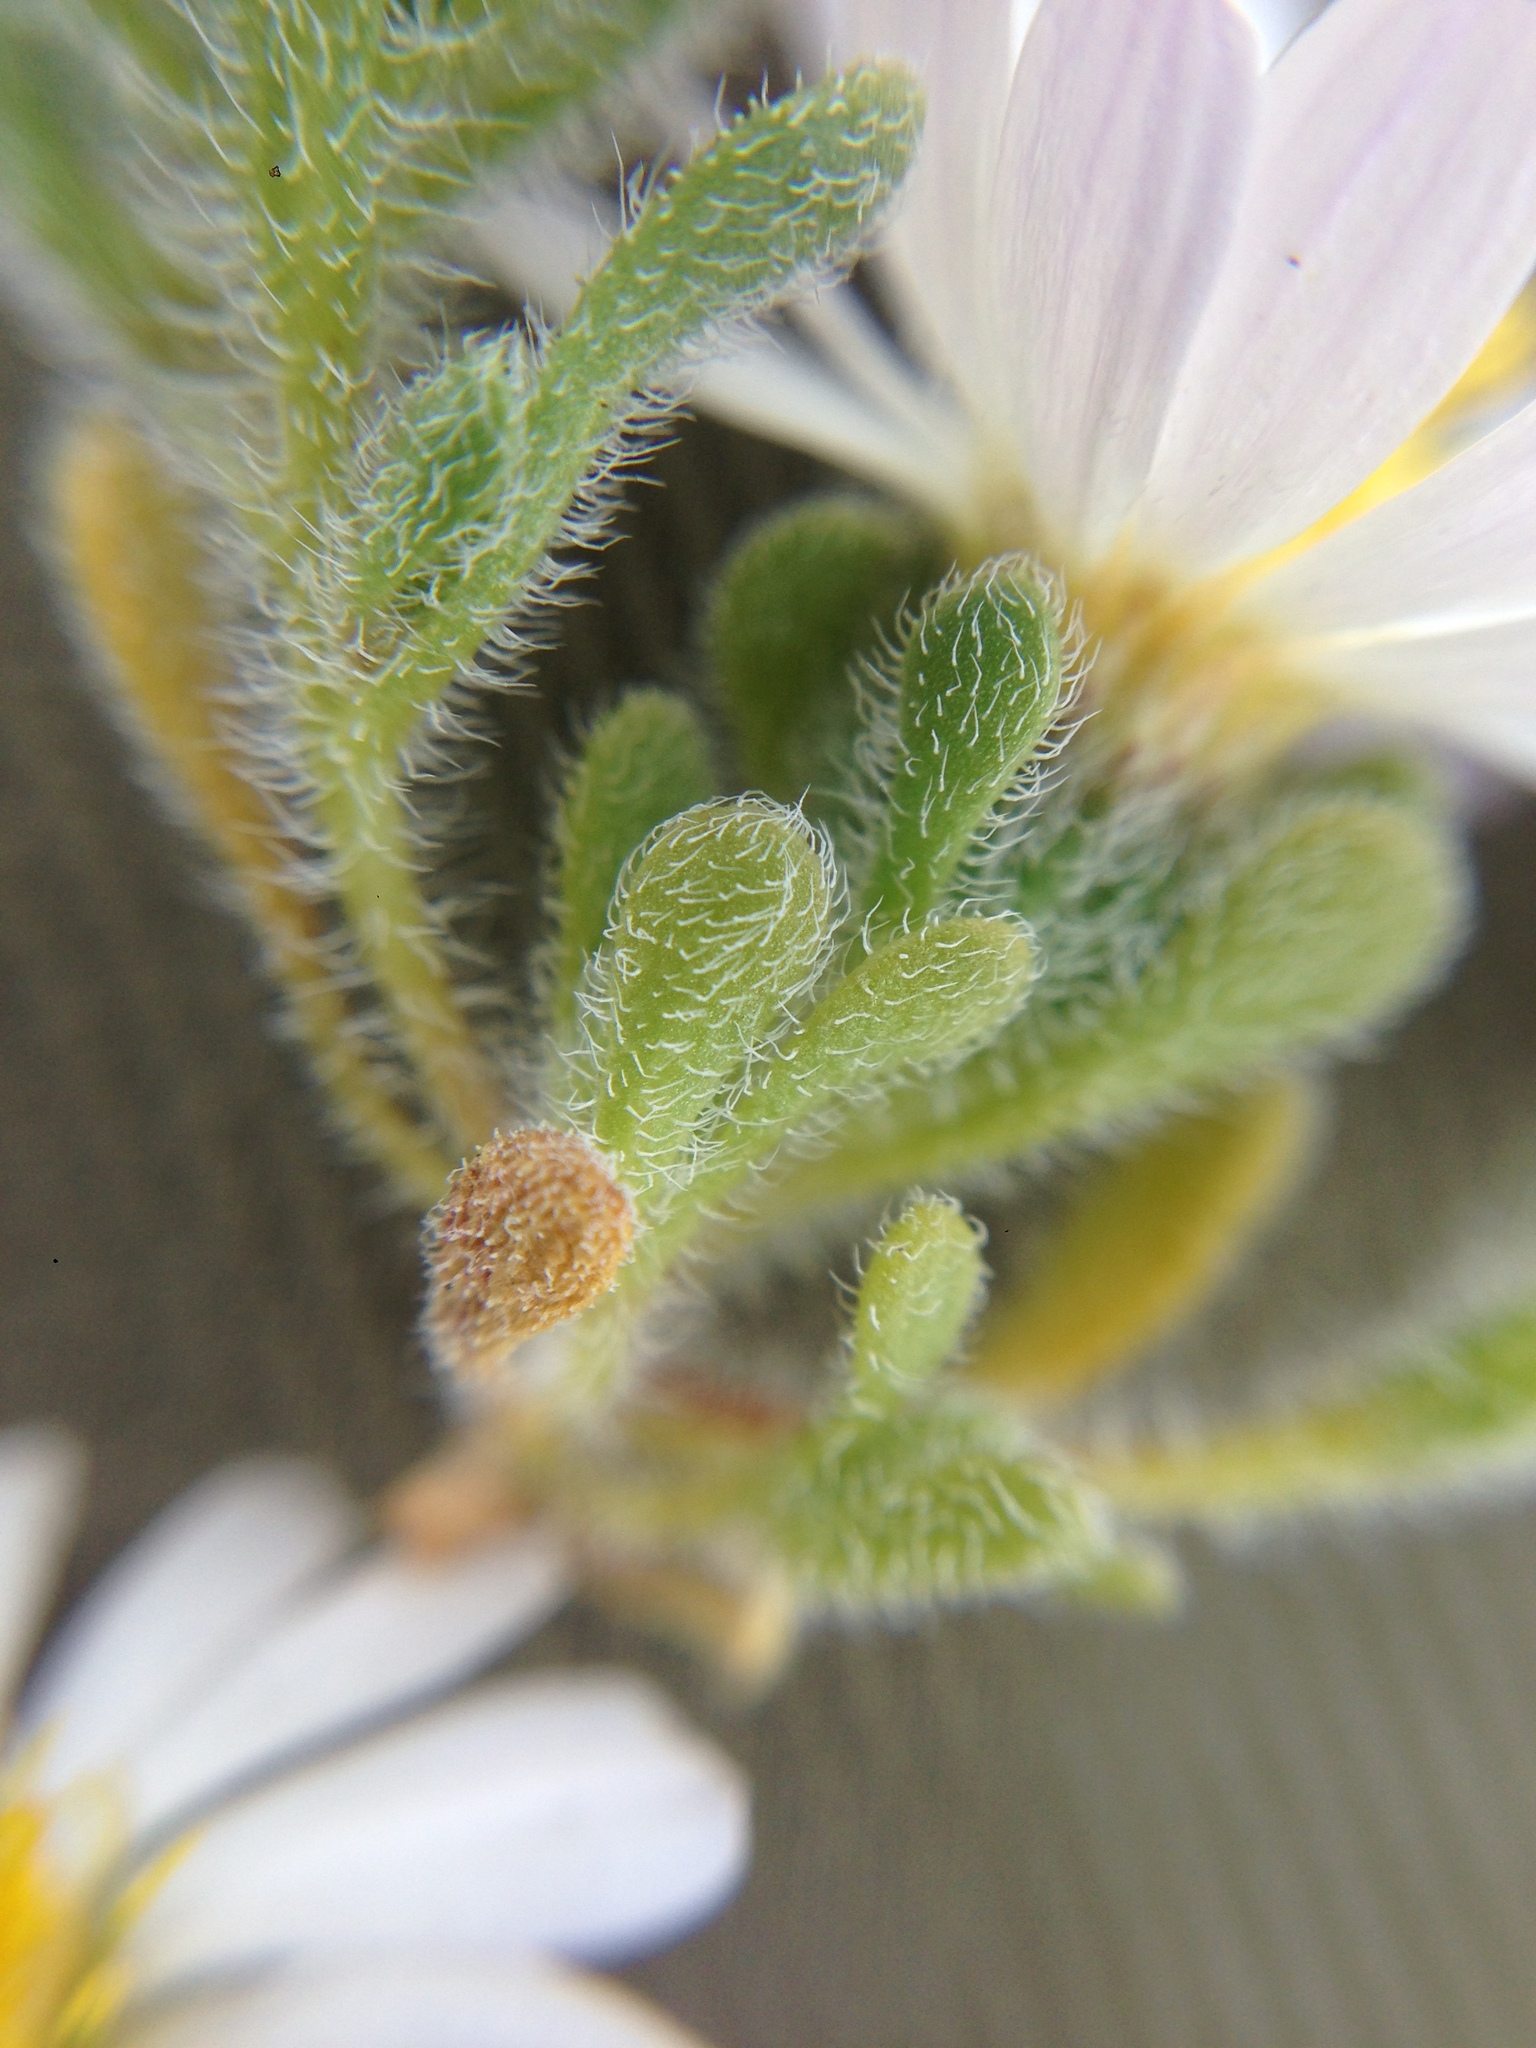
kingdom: Plantae
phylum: Tracheophyta
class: Magnoliopsida
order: Asterales
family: Asteraceae
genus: Monoptilon
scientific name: Monoptilon bellioides
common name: Bristly desertstar
